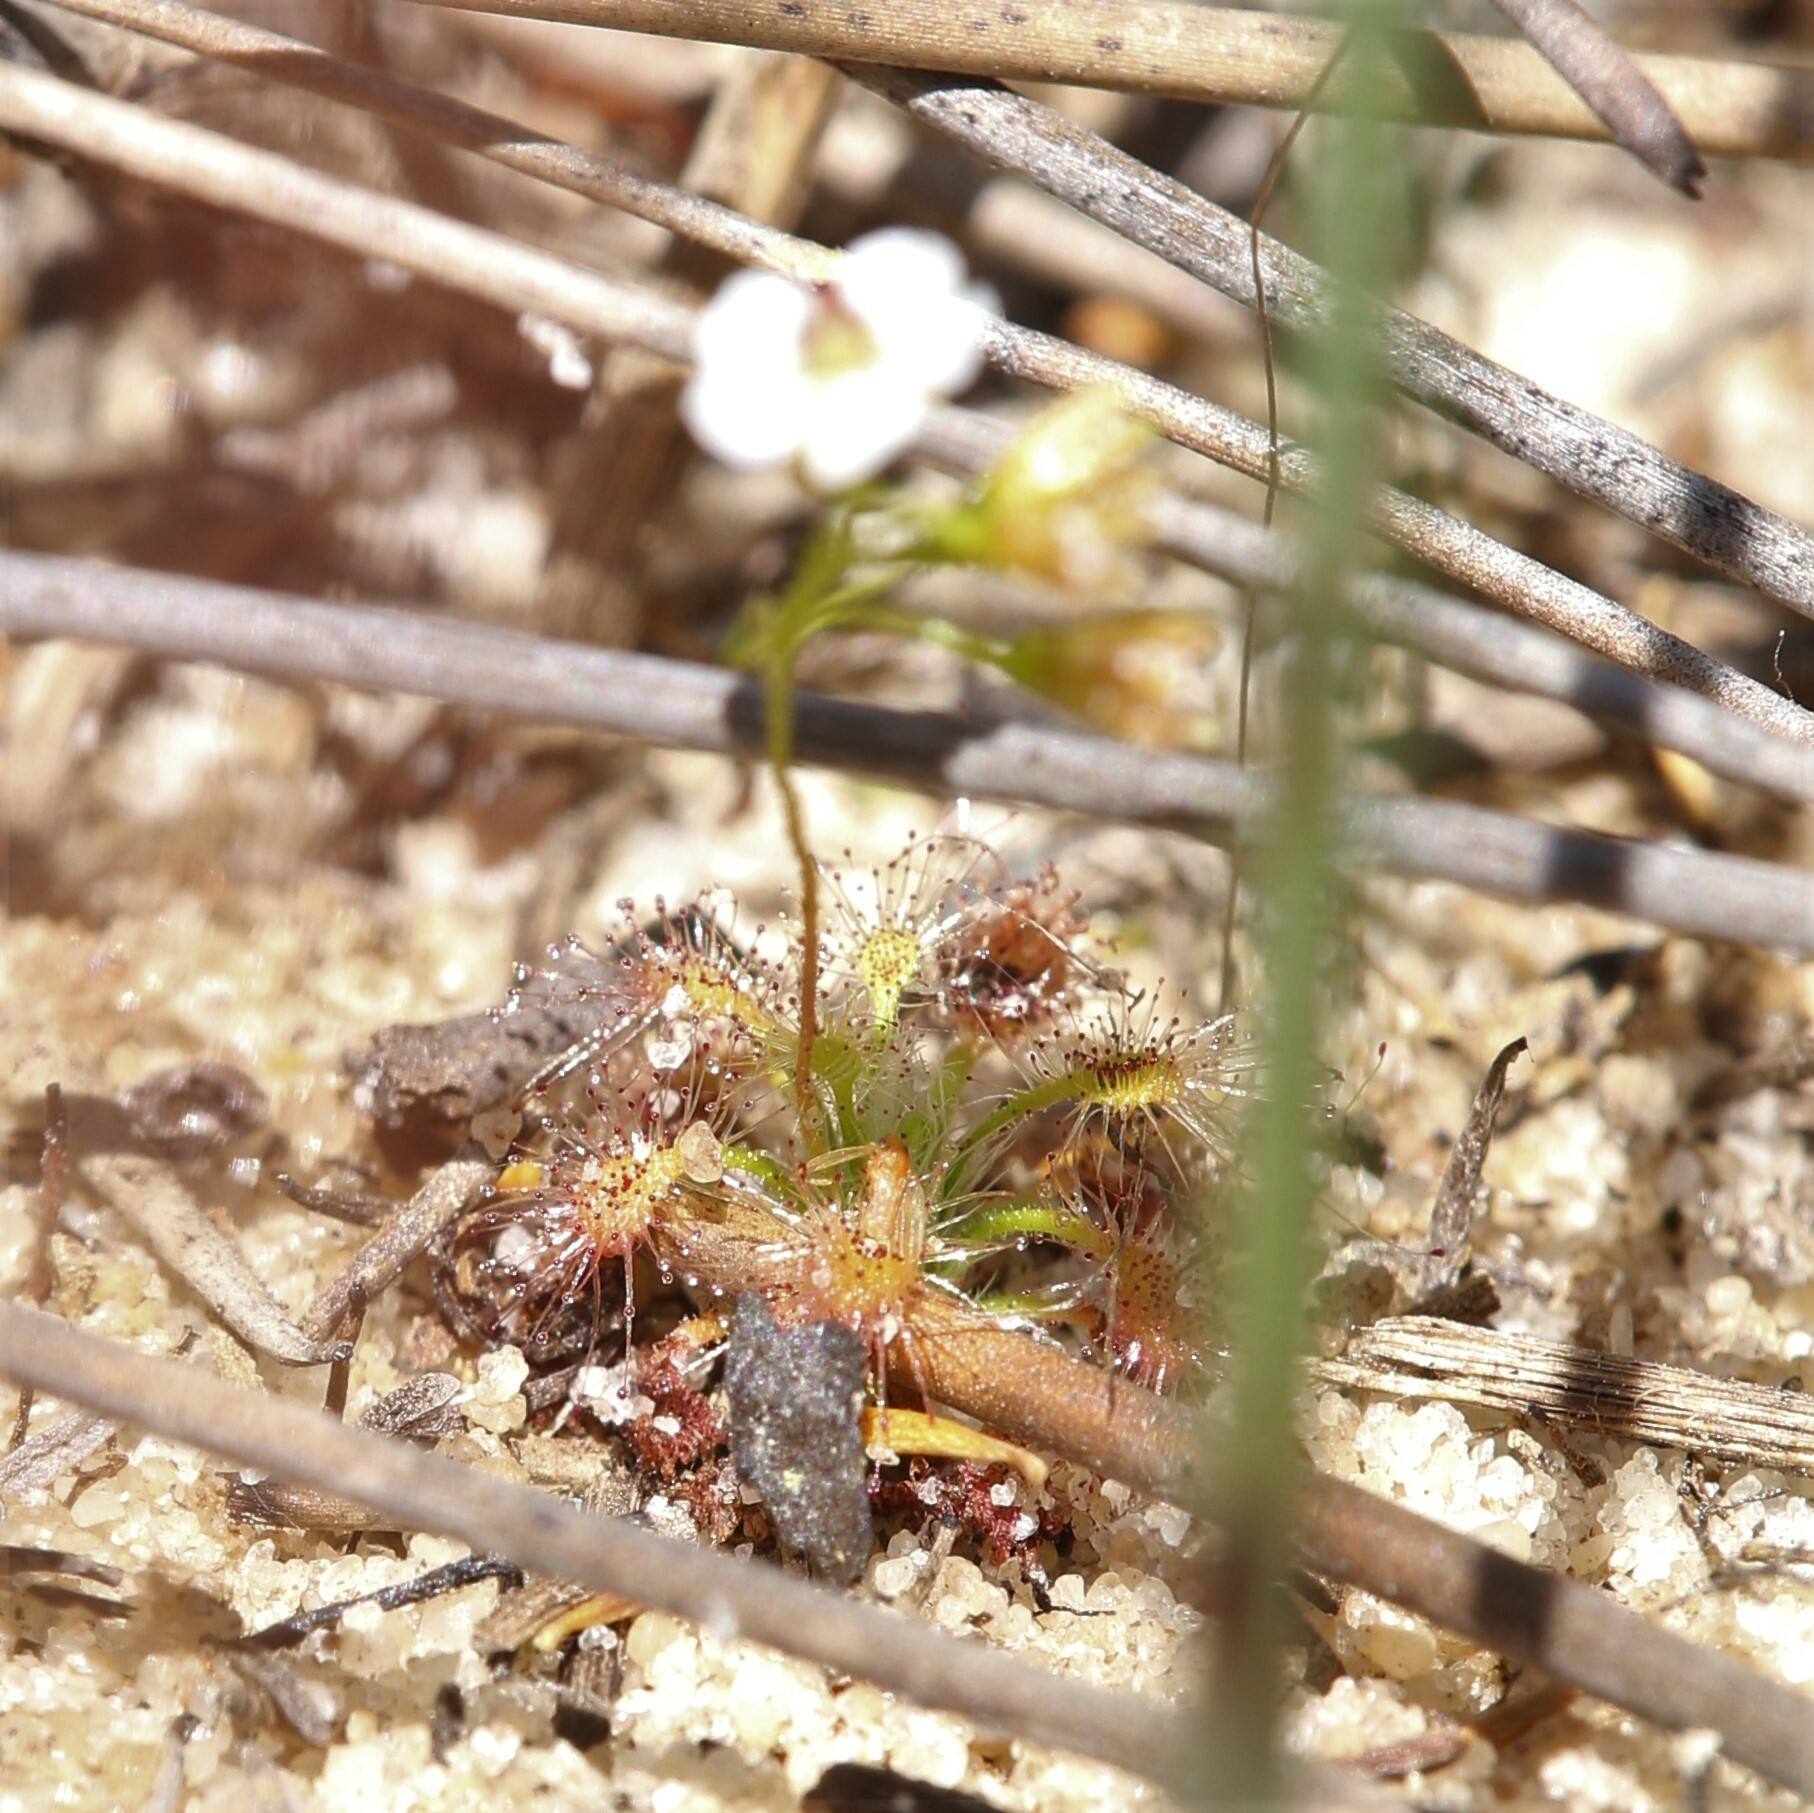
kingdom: Plantae
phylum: Tracheophyta
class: Magnoliopsida
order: Caryophyllales
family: Droseraceae
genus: Drosera
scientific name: Drosera patens
